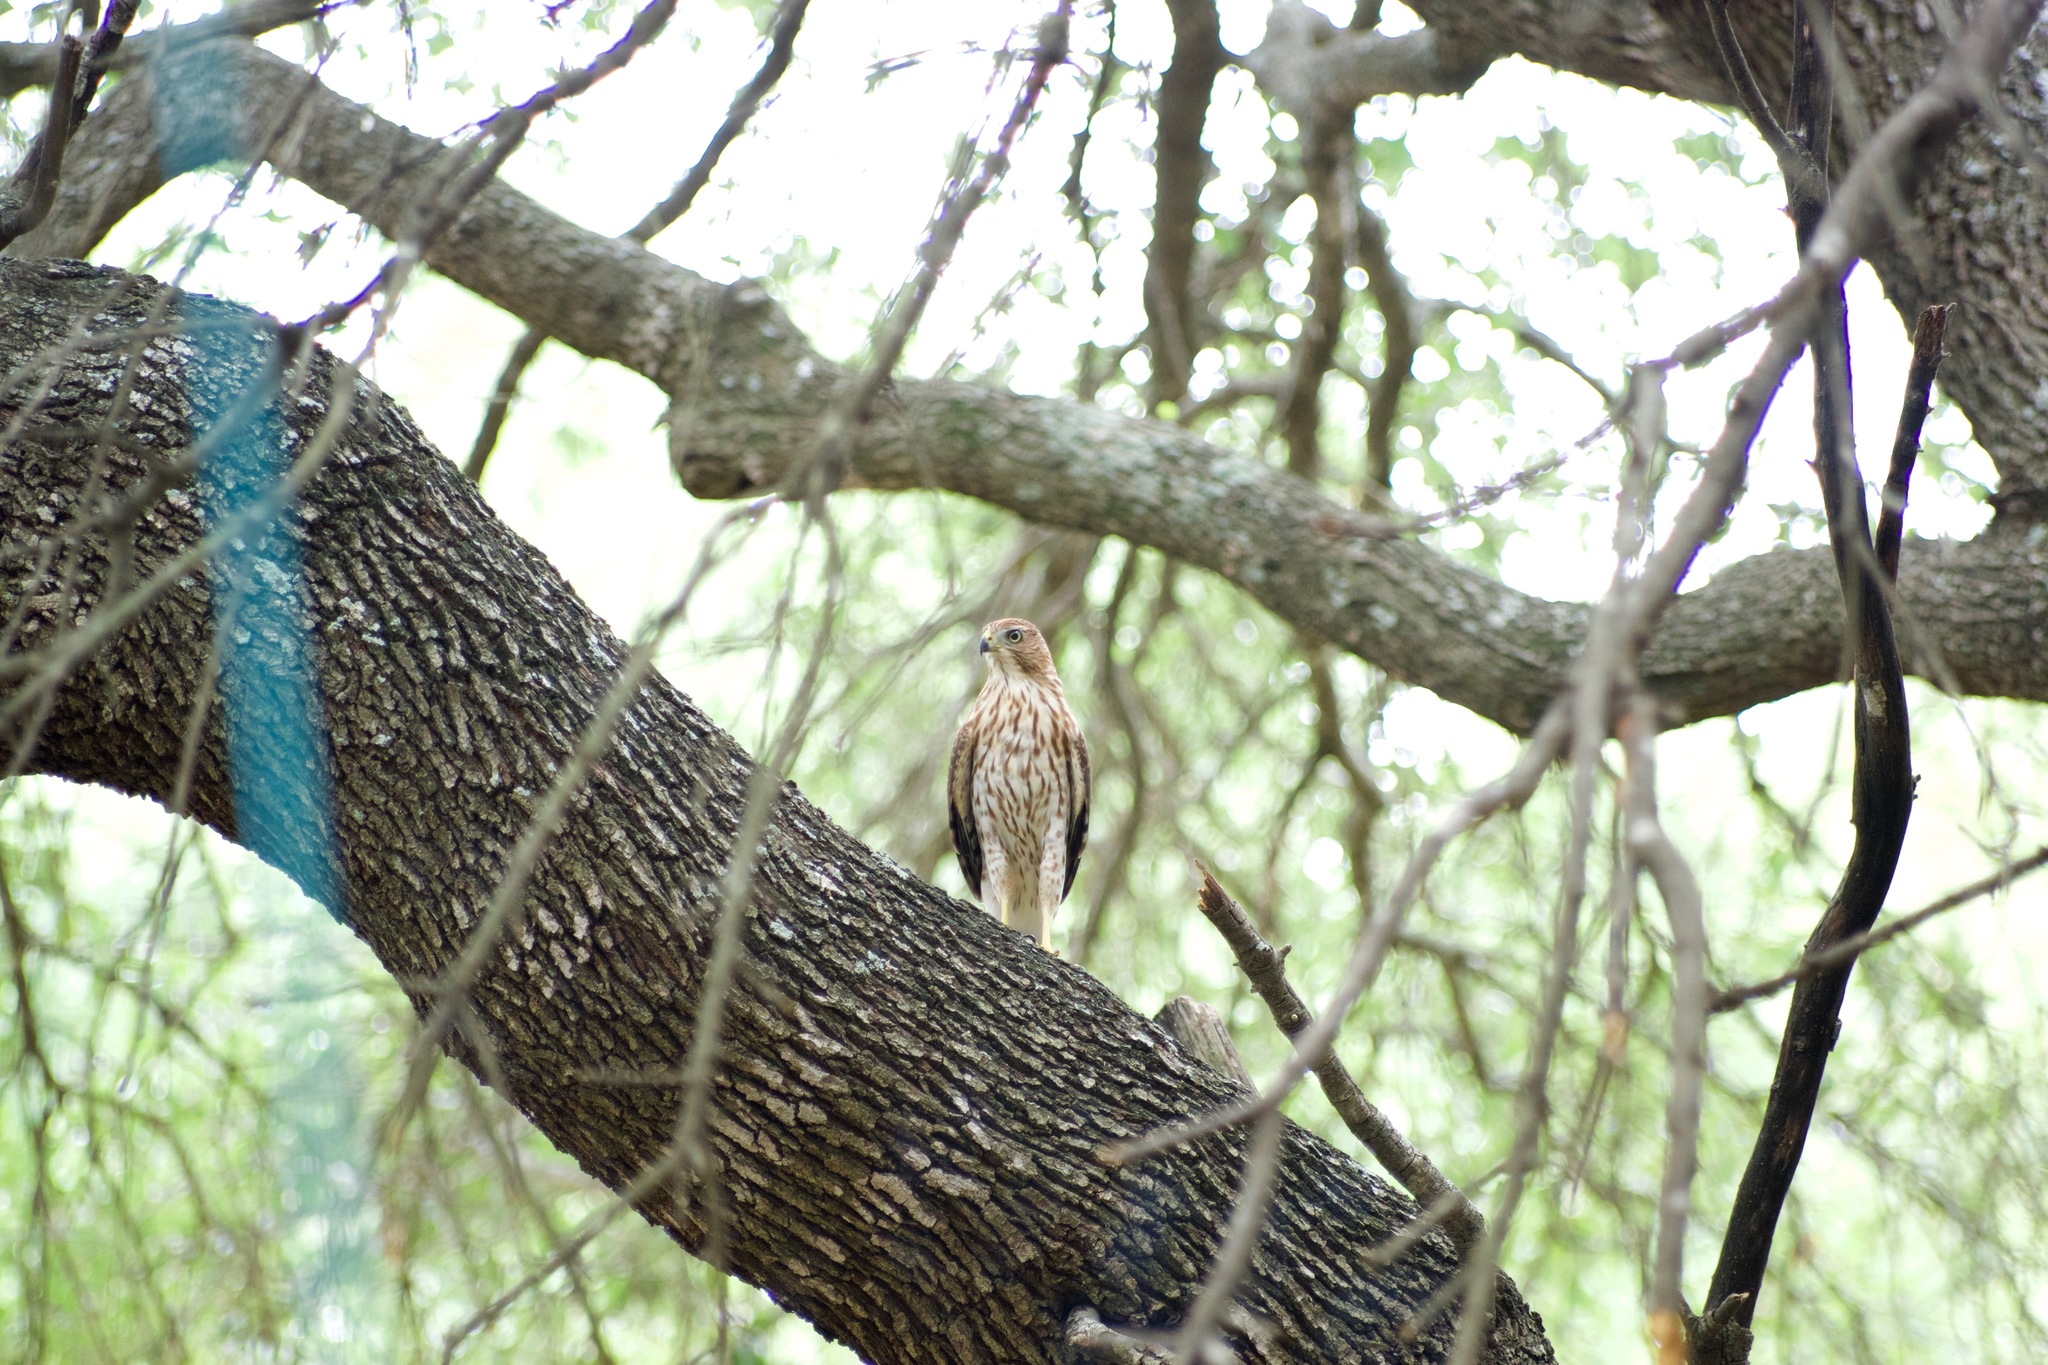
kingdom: Animalia
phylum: Chordata
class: Aves
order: Accipitriformes
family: Accipitridae
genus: Accipiter
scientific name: Accipiter cooperii
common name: Cooper's hawk
